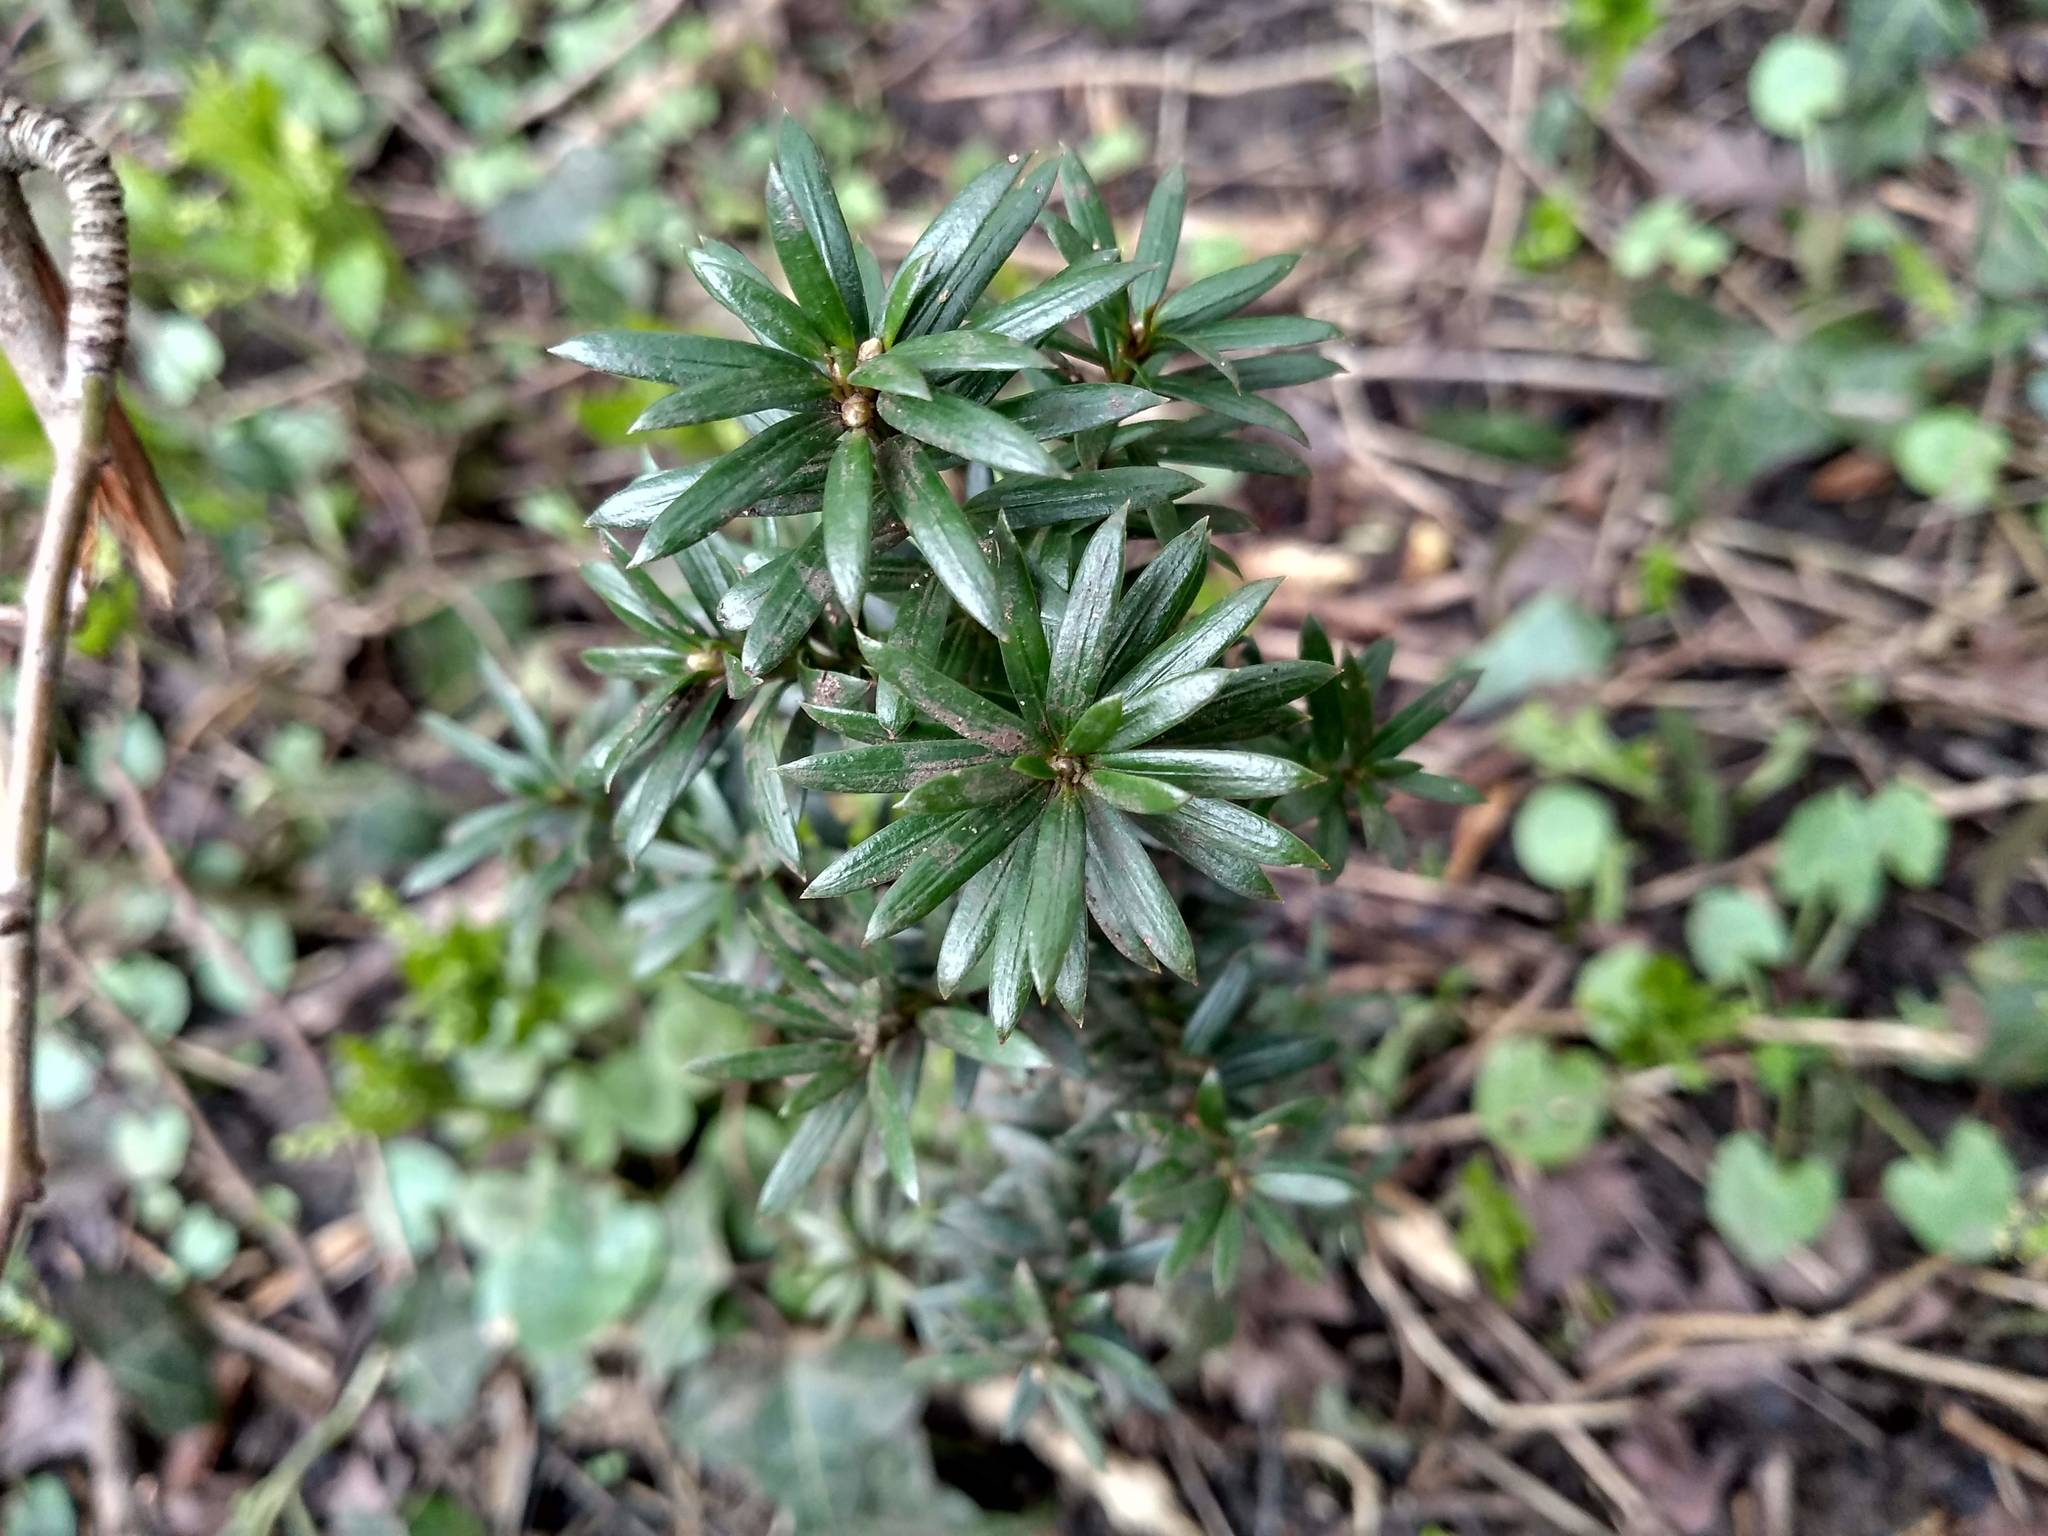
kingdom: Plantae
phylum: Tracheophyta
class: Pinopsida
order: Pinales
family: Taxaceae
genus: Taxus
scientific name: Taxus baccata
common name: Yew
